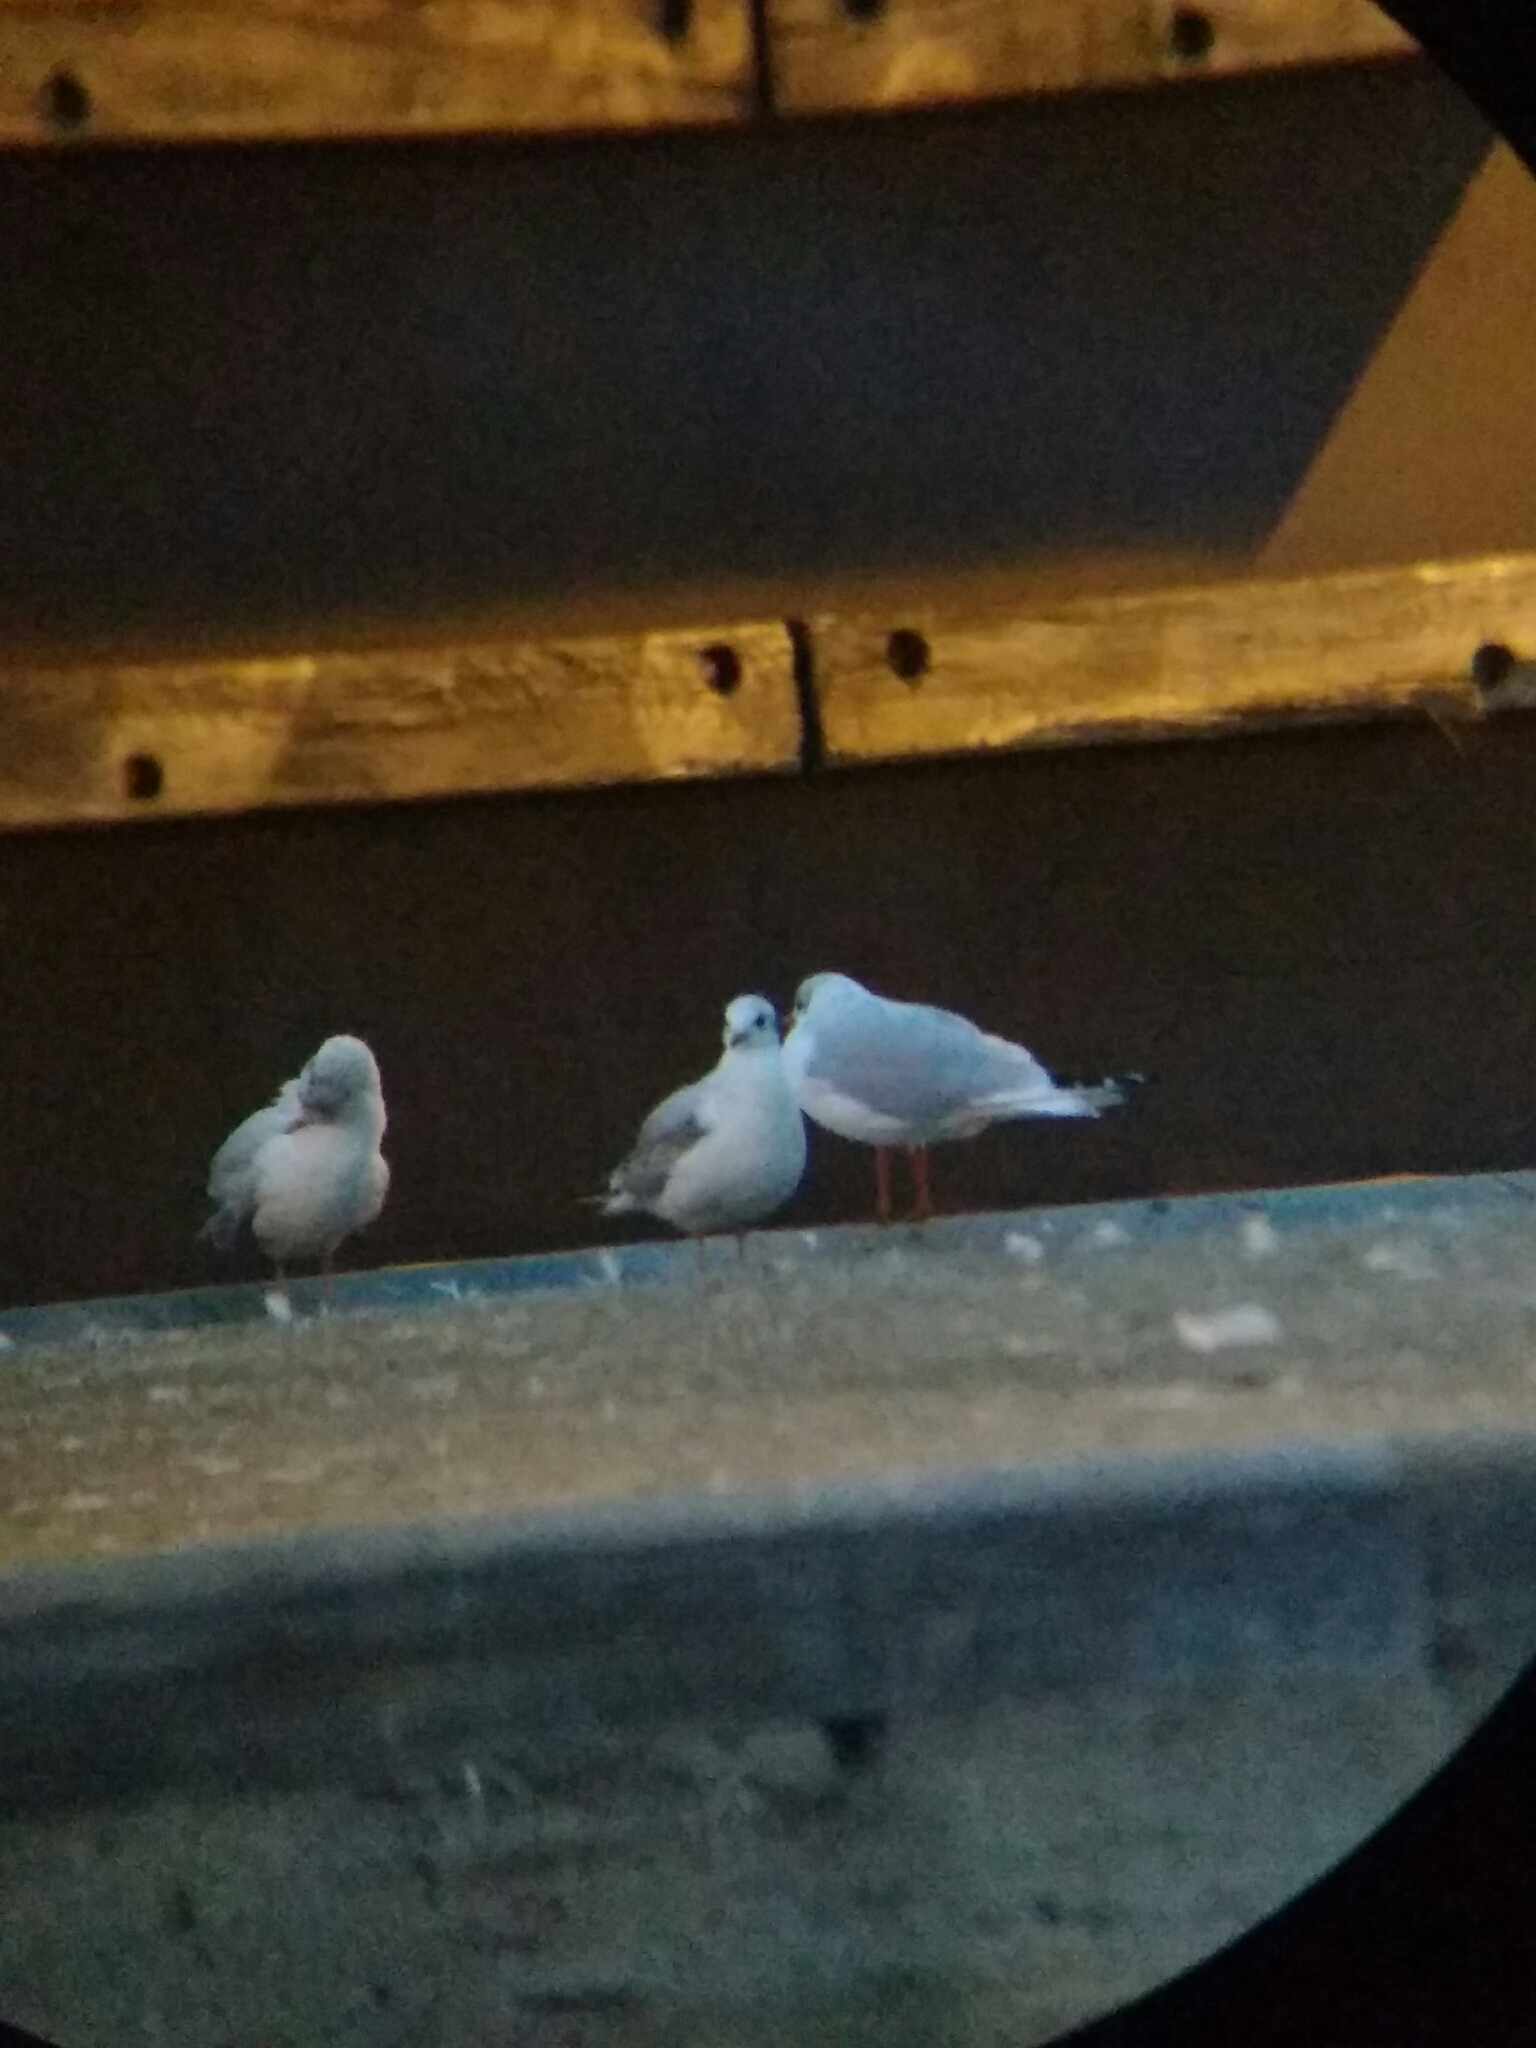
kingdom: Animalia
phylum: Chordata
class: Aves
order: Charadriiformes
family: Laridae
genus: Chroicocephalus
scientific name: Chroicocephalus ridibundus
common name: Black-headed gull
